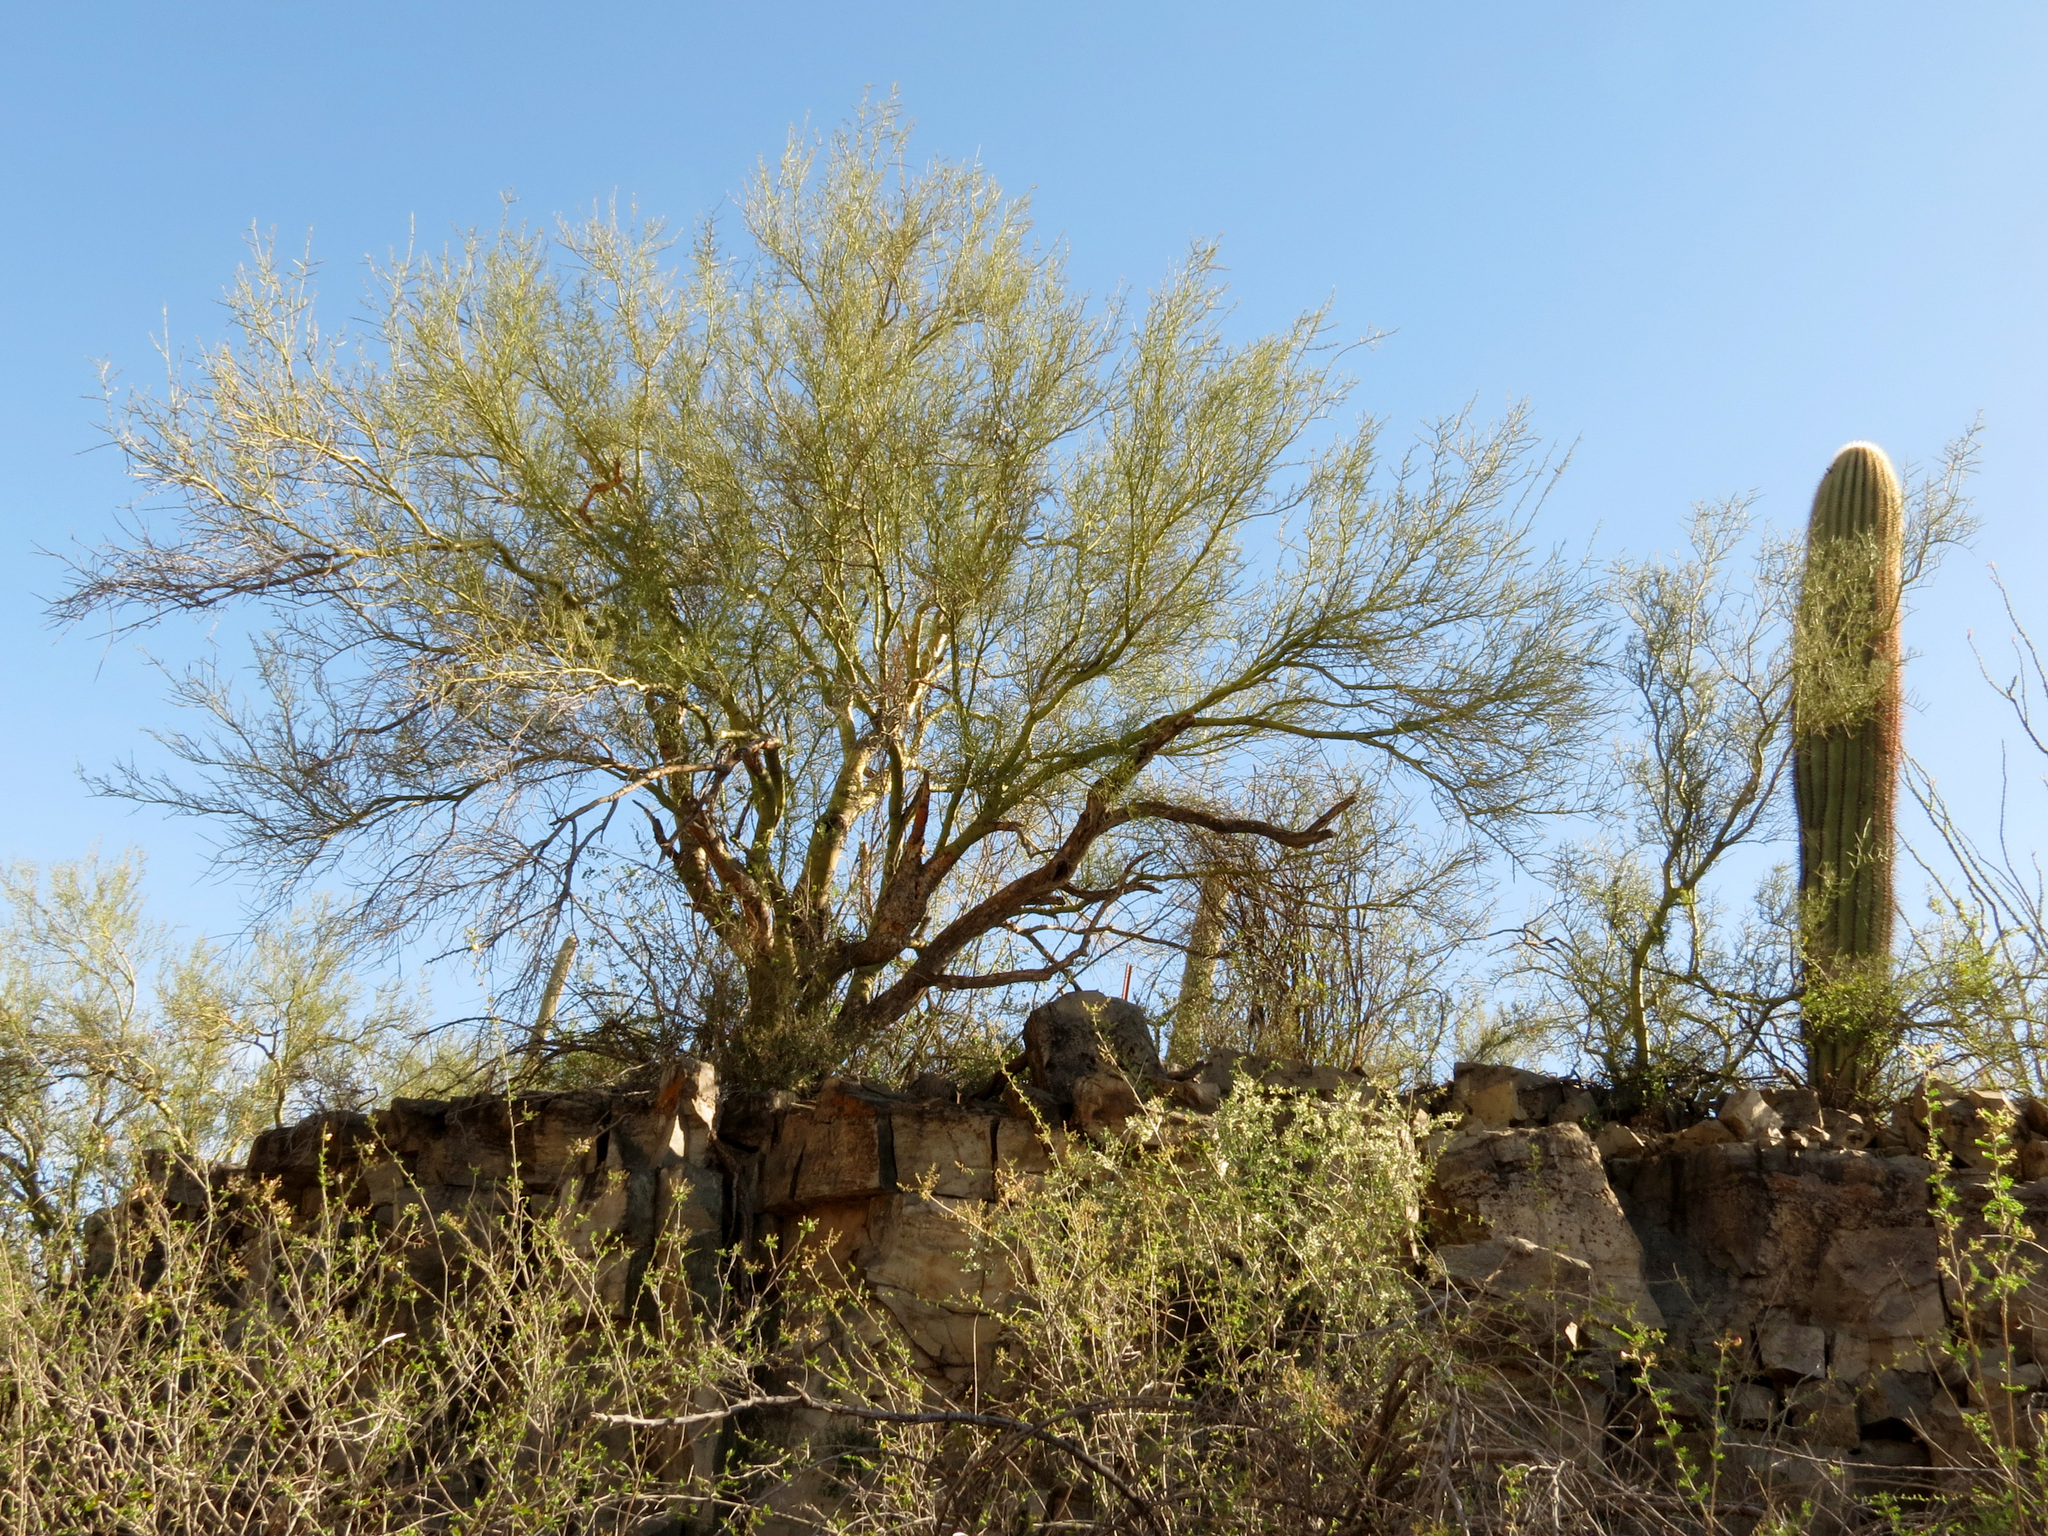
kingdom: Plantae
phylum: Tracheophyta
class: Magnoliopsida
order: Fabales
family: Fabaceae
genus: Parkinsonia
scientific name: Parkinsonia microphylla
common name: Yellow paloverde
